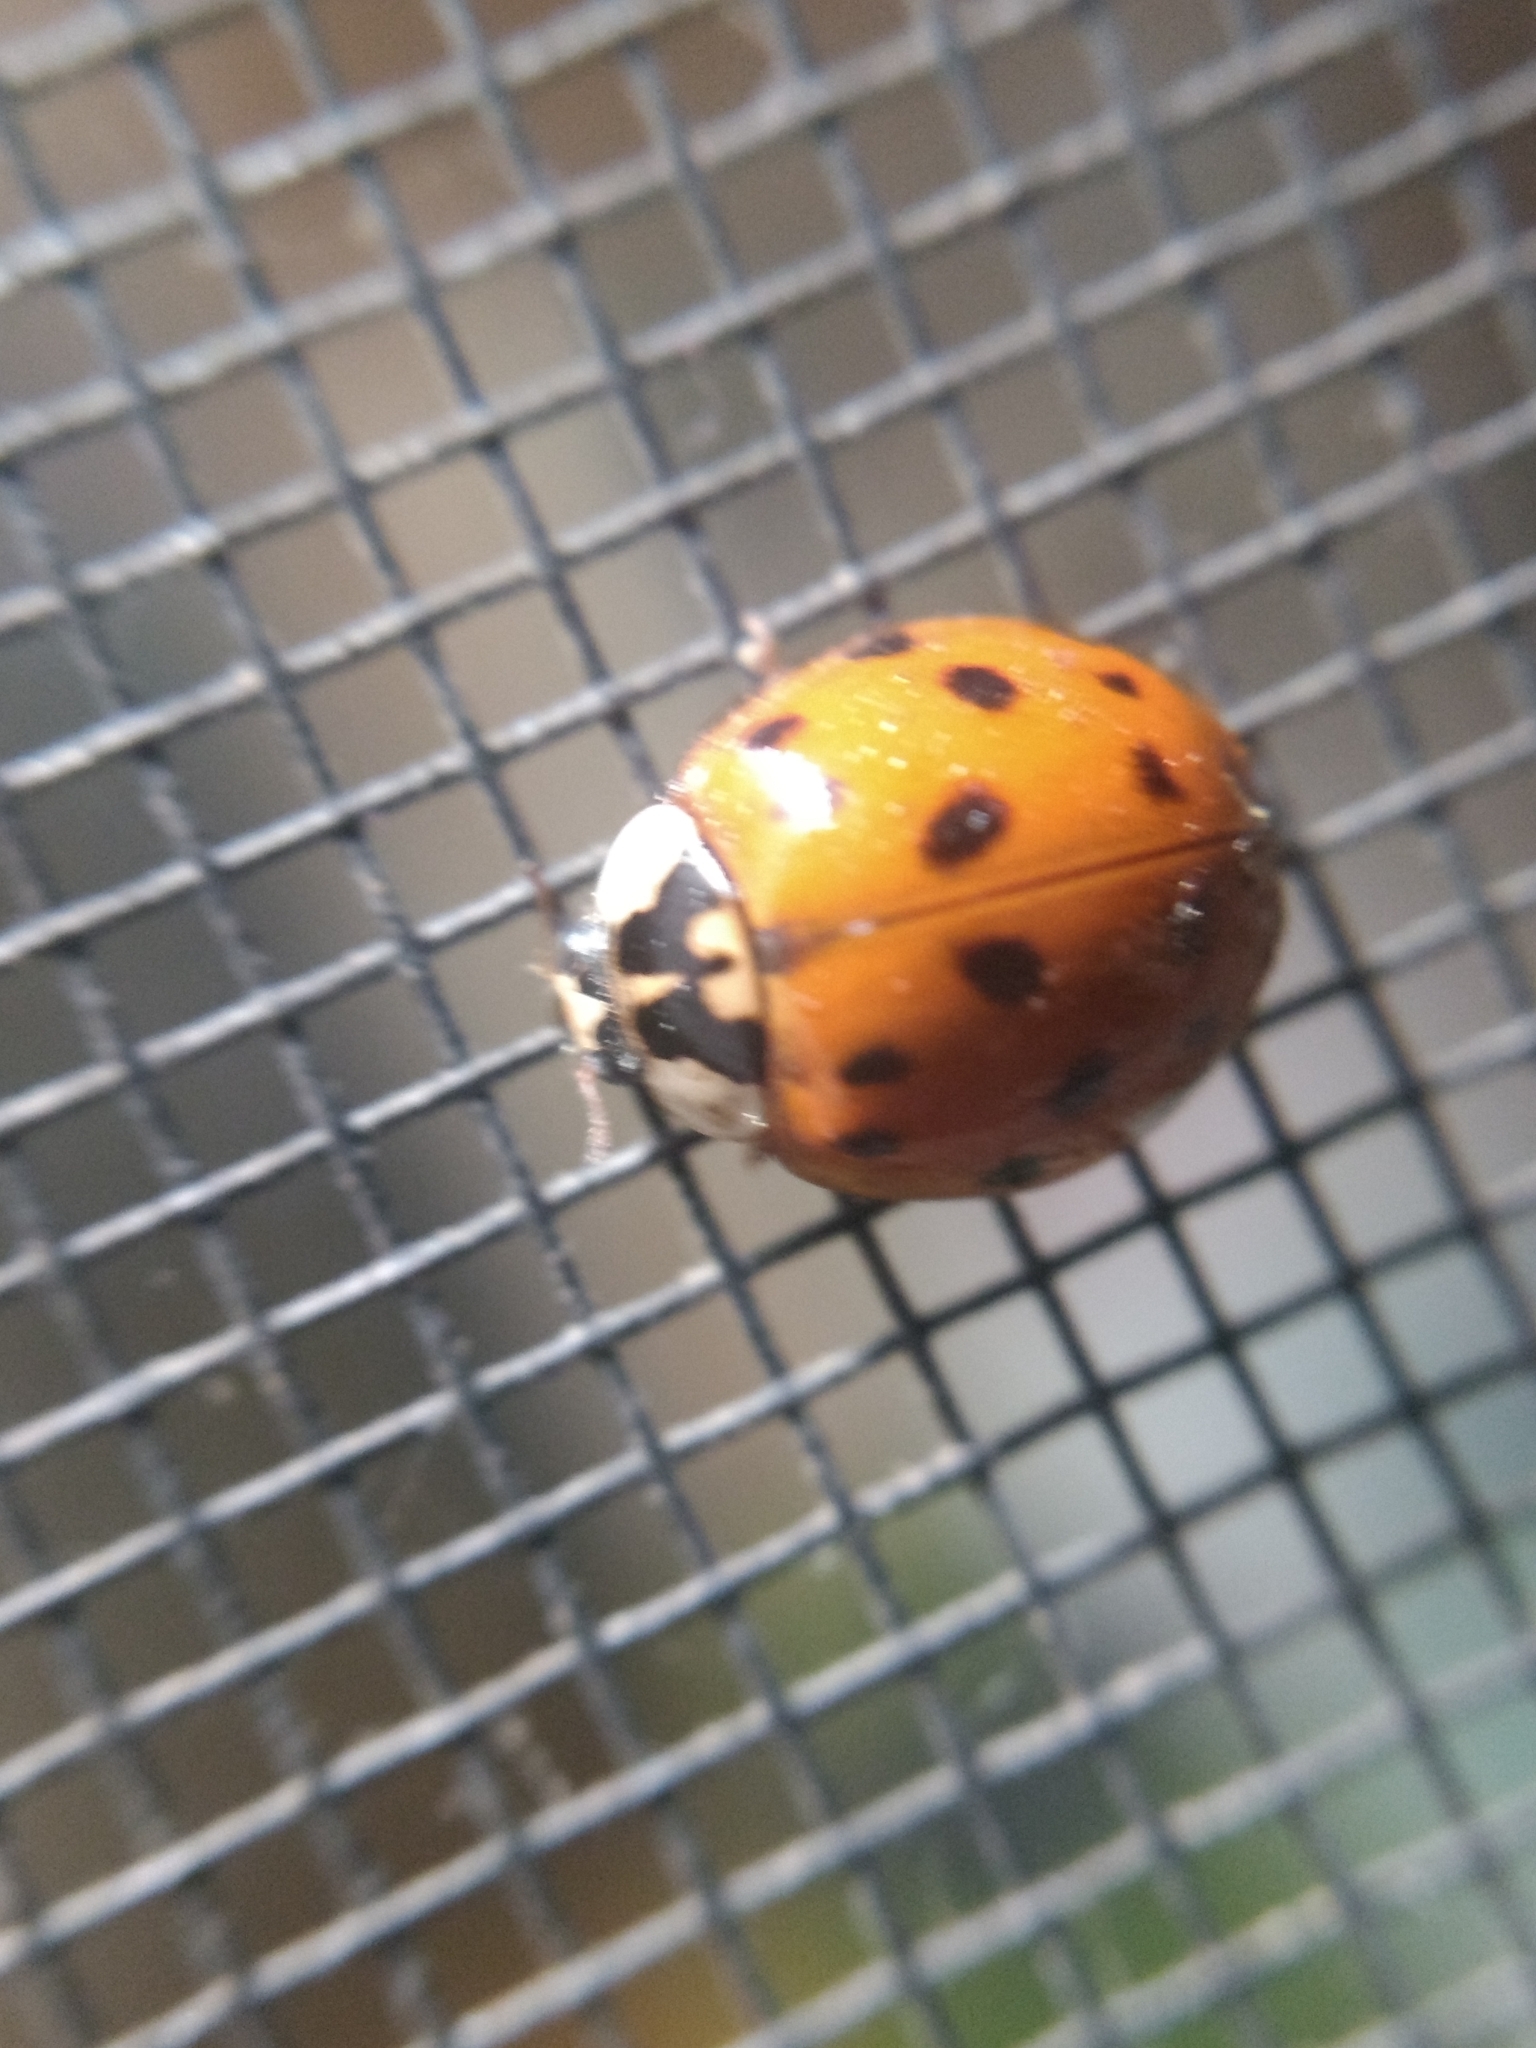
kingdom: Animalia
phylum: Arthropoda
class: Insecta
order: Coleoptera
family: Coccinellidae
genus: Harmonia
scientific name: Harmonia axyridis
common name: Harlequin ladybird
